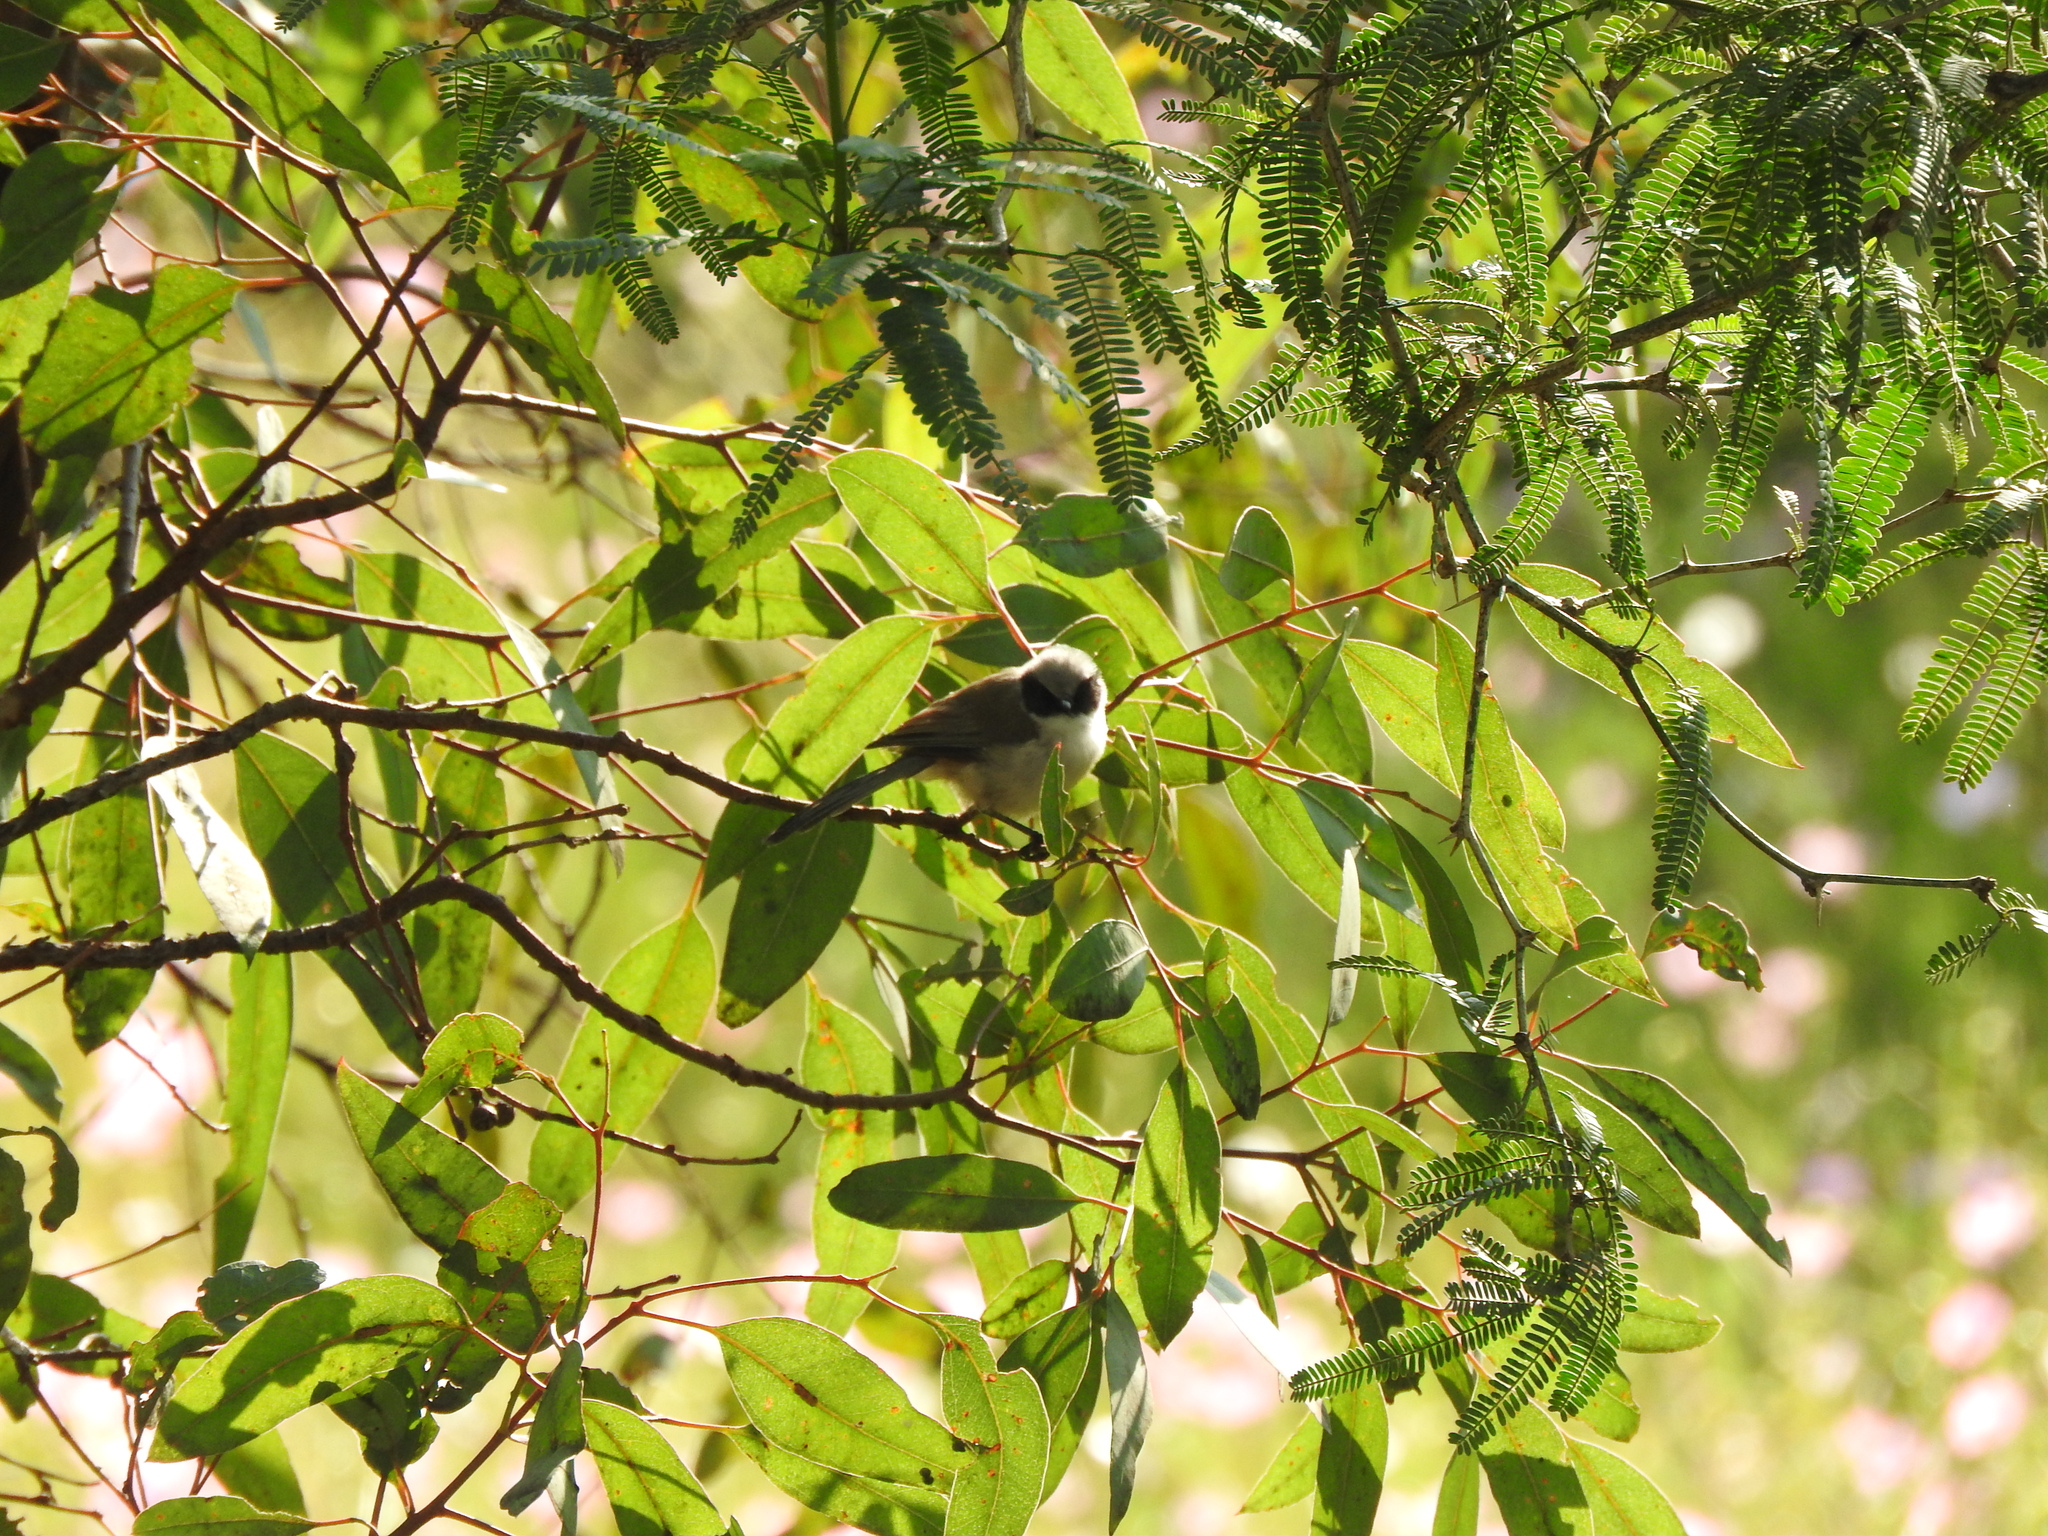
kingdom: Animalia
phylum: Chordata
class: Aves
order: Passeriformes
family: Aegithalidae
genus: Psaltriparus
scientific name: Psaltriparus minimus
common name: American bushtit
